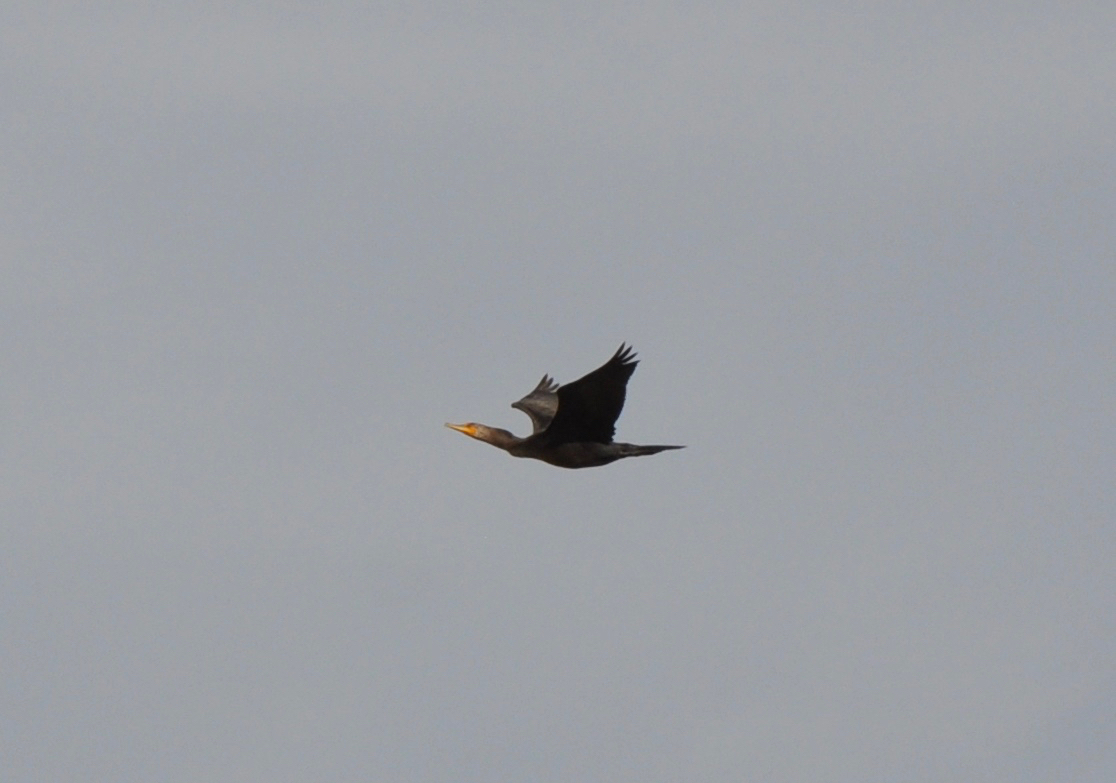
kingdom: Animalia
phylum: Chordata
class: Aves
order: Suliformes
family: Phalacrocoracidae
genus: Phalacrocorax
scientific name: Phalacrocorax auritus
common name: Double-crested cormorant
